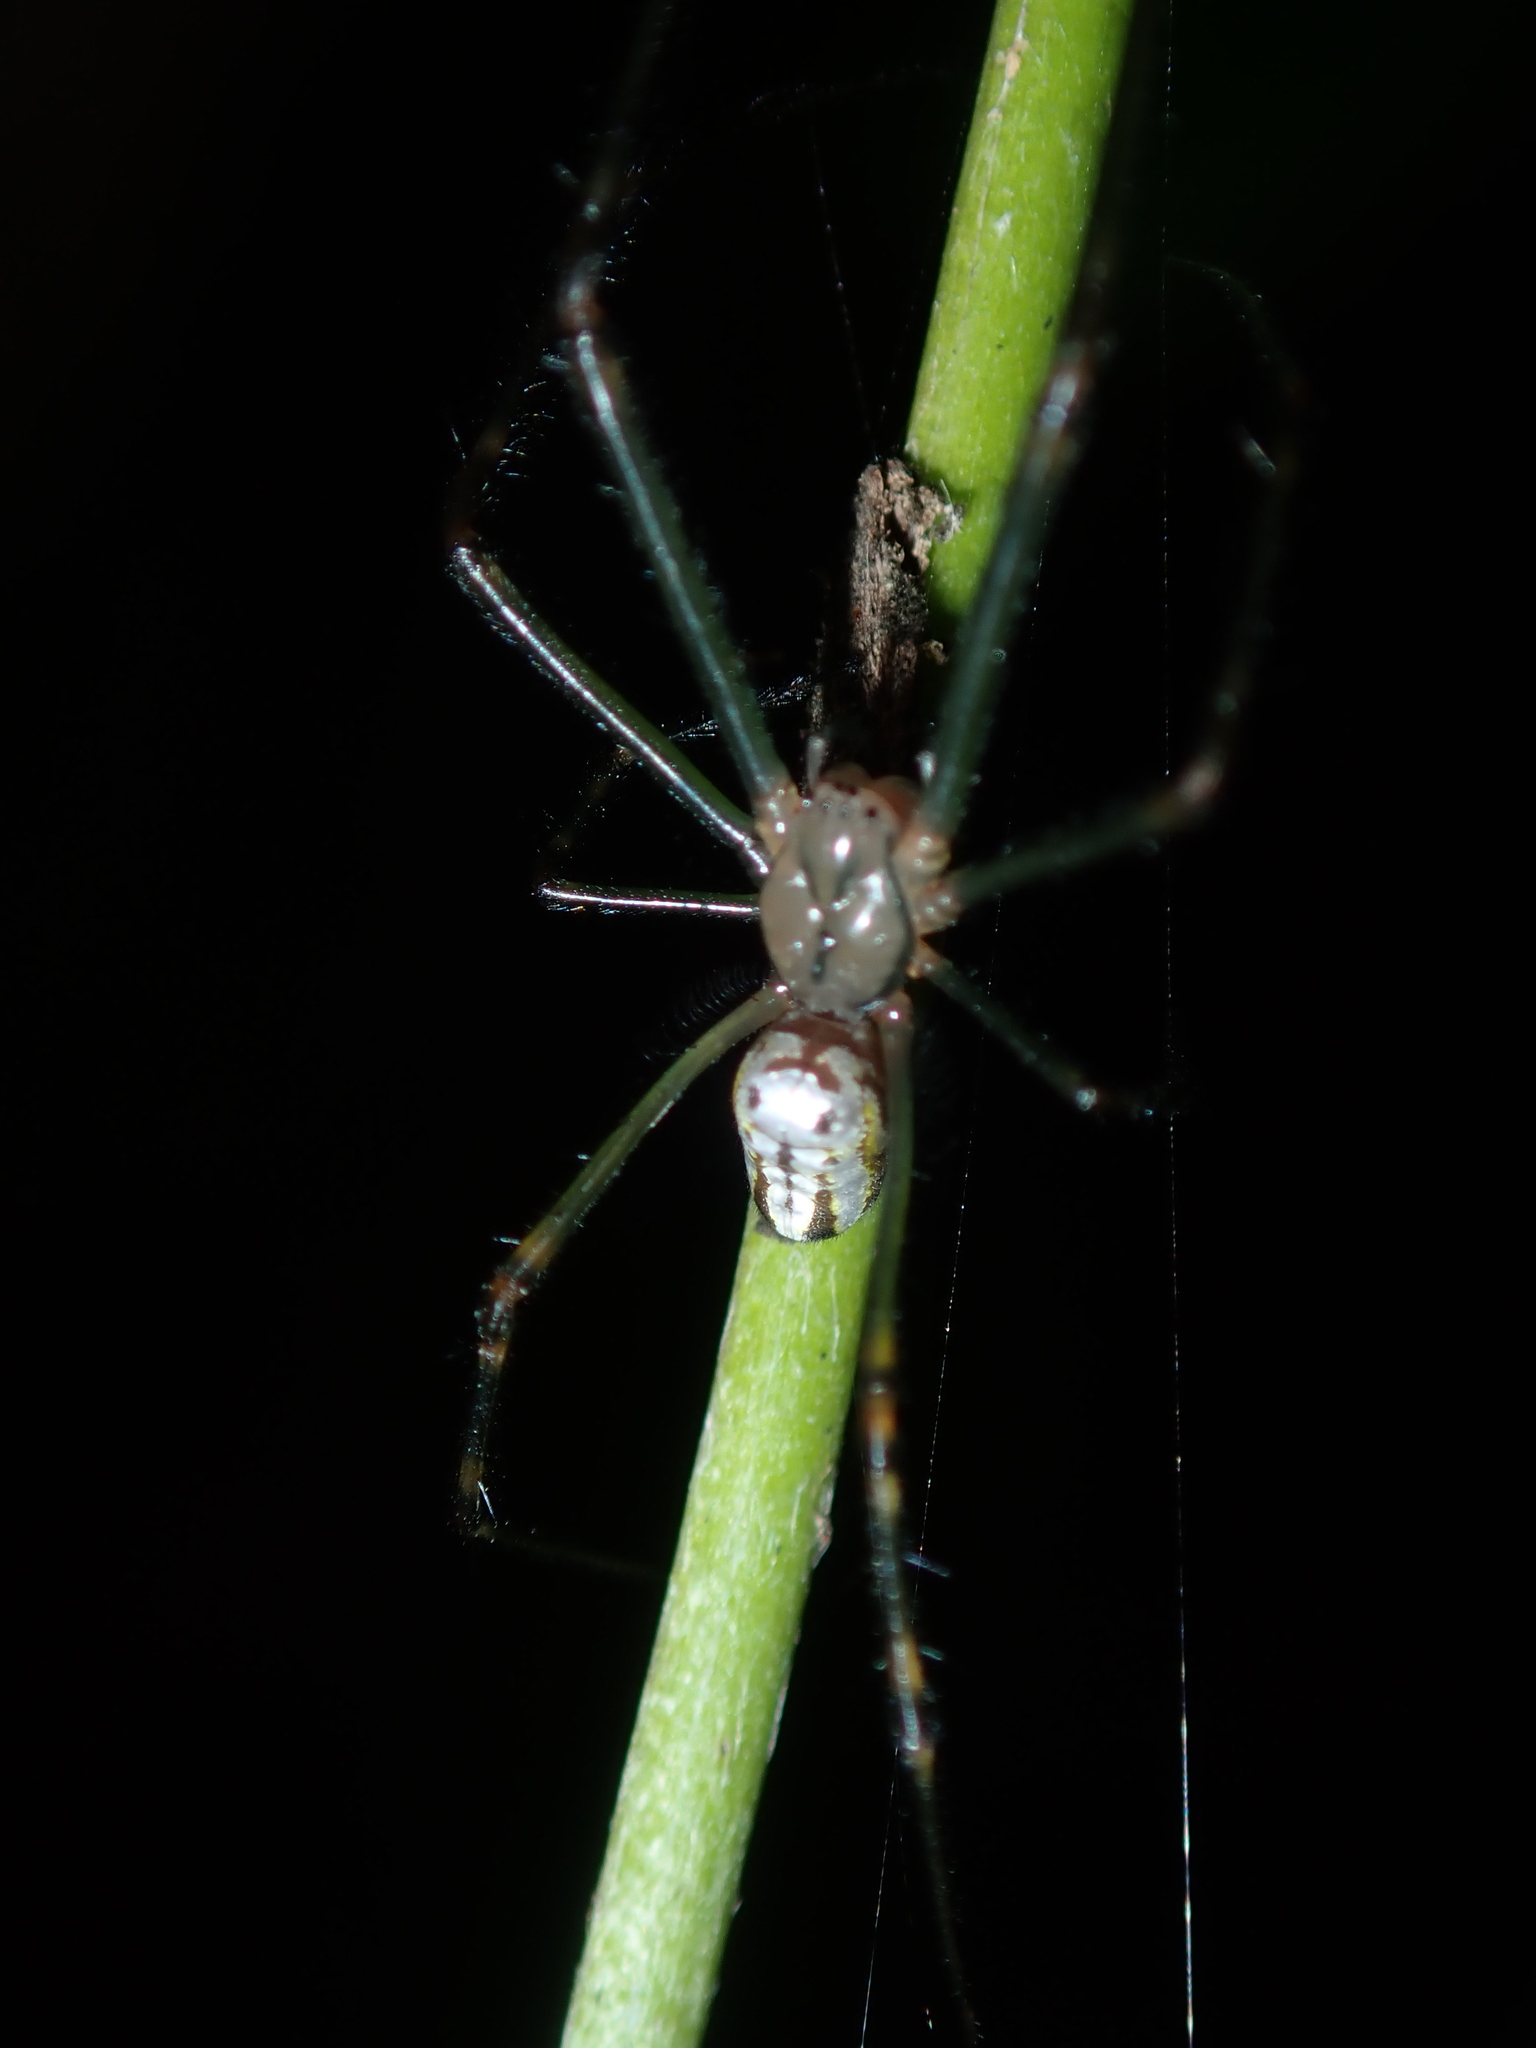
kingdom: Animalia
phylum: Arthropoda
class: Arachnida
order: Araneae
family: Tetragnathidae
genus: Leucauge
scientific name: Leucauge dromedaria
